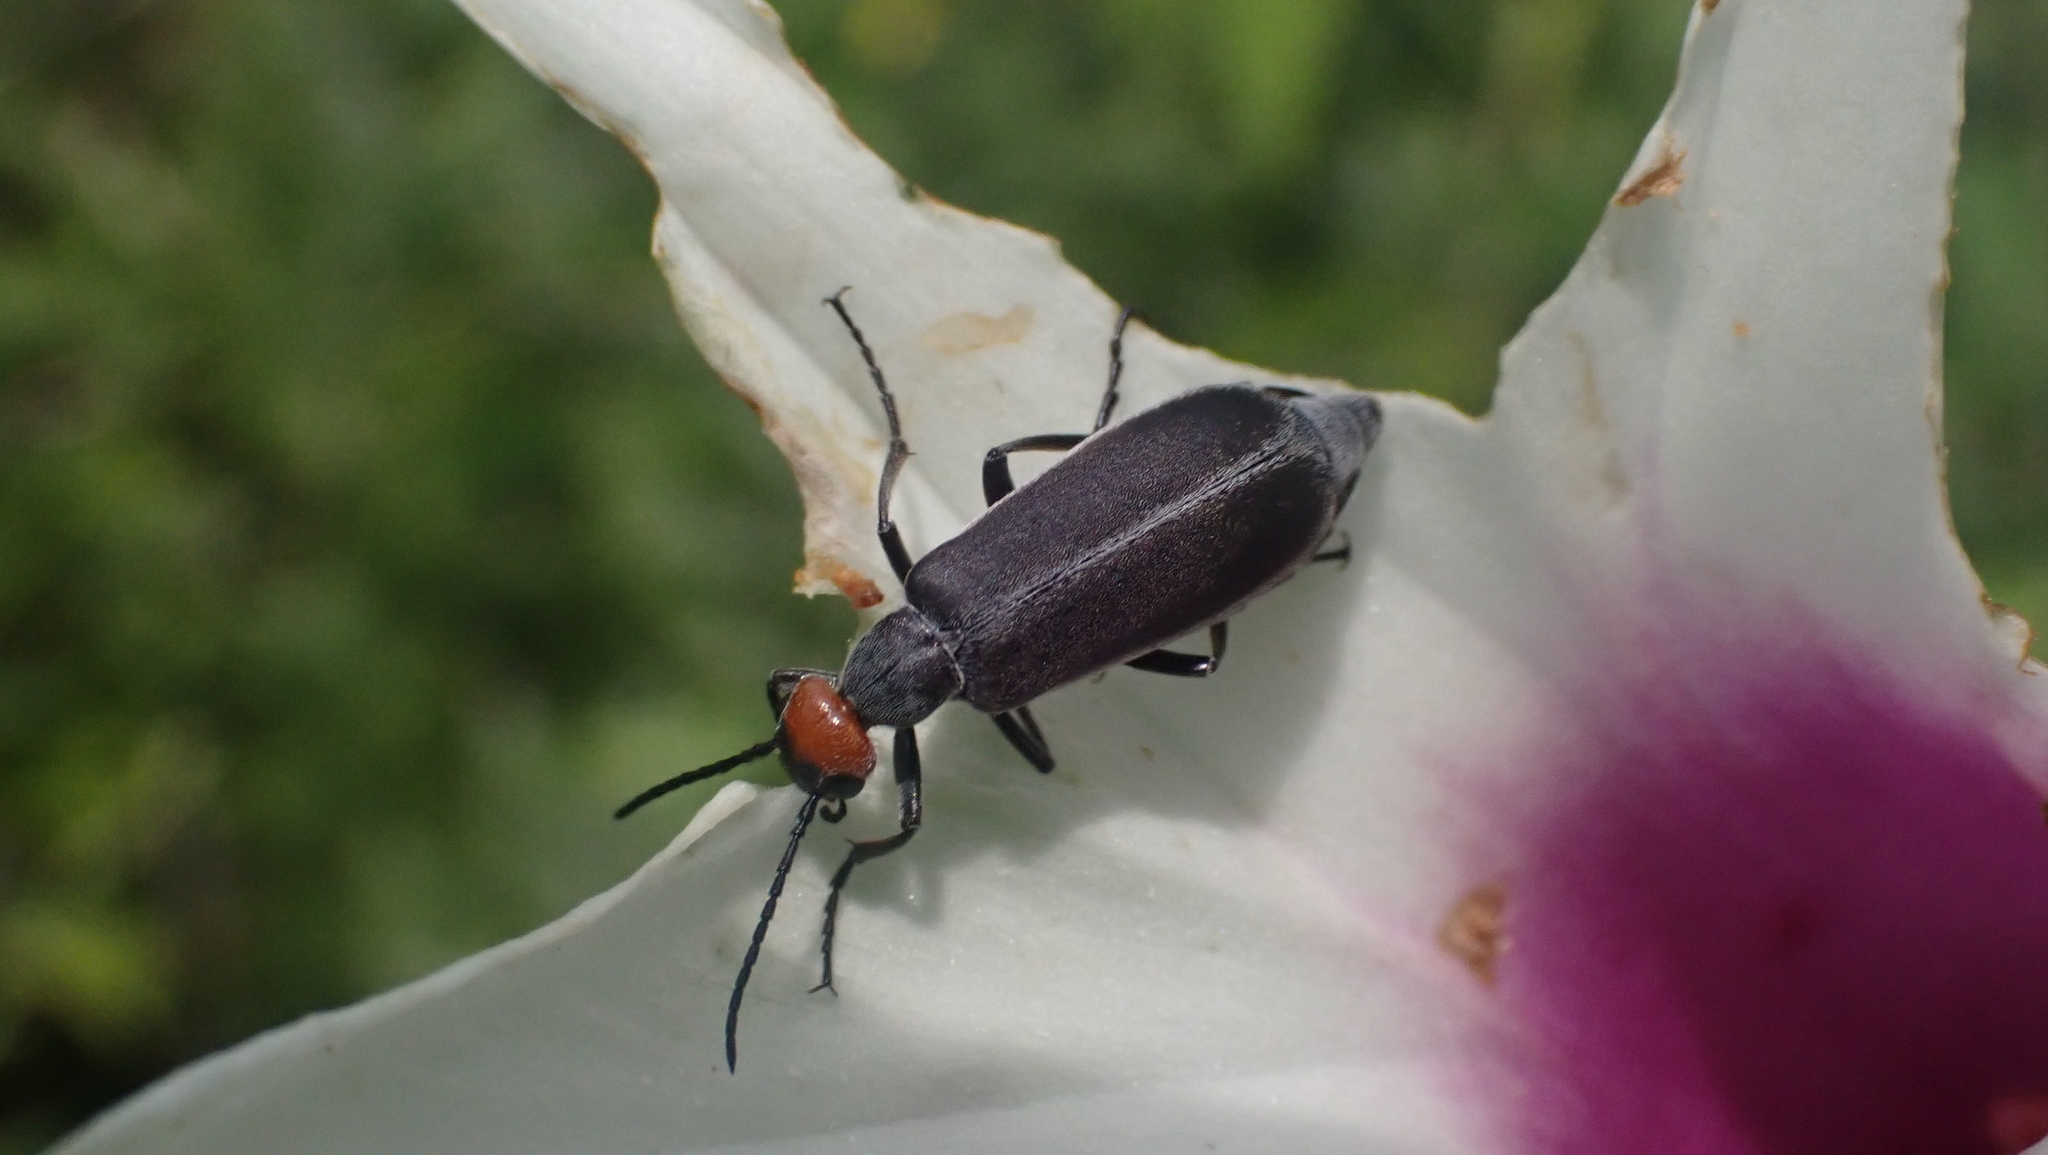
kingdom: Animalia
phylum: Arthropoda
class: Insecta
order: Coleoptera
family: Meloidae
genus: Epicauta
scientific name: Epicauta atrata
